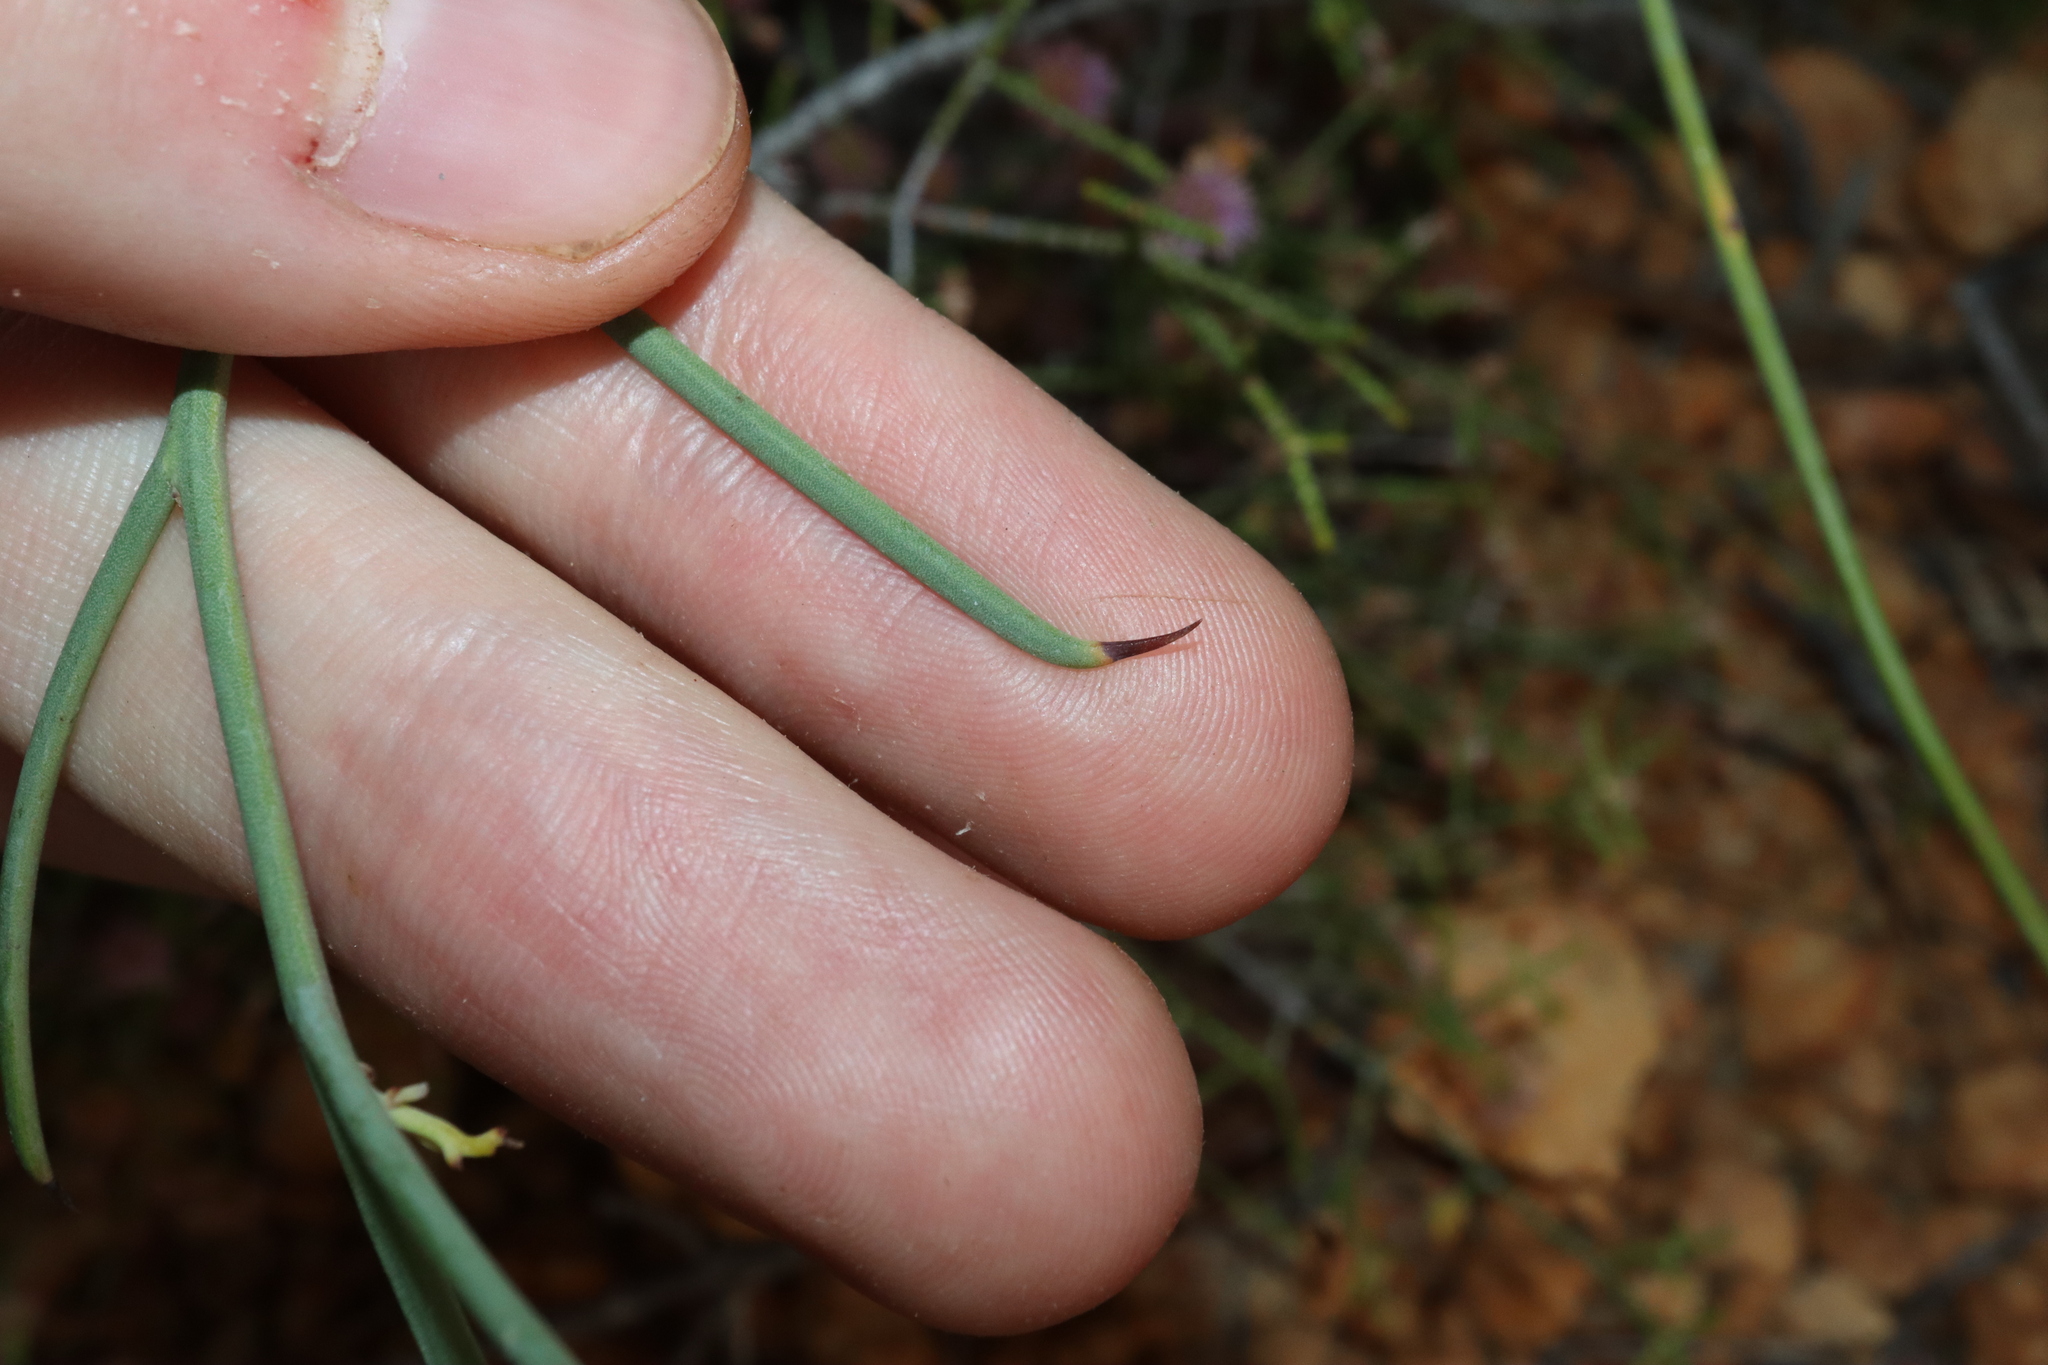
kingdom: Plantae
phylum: Tracheophyta
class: Magnoliopsida
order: Fabales
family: Fabaceae
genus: Daviesia
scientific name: Daviesia uncinata
